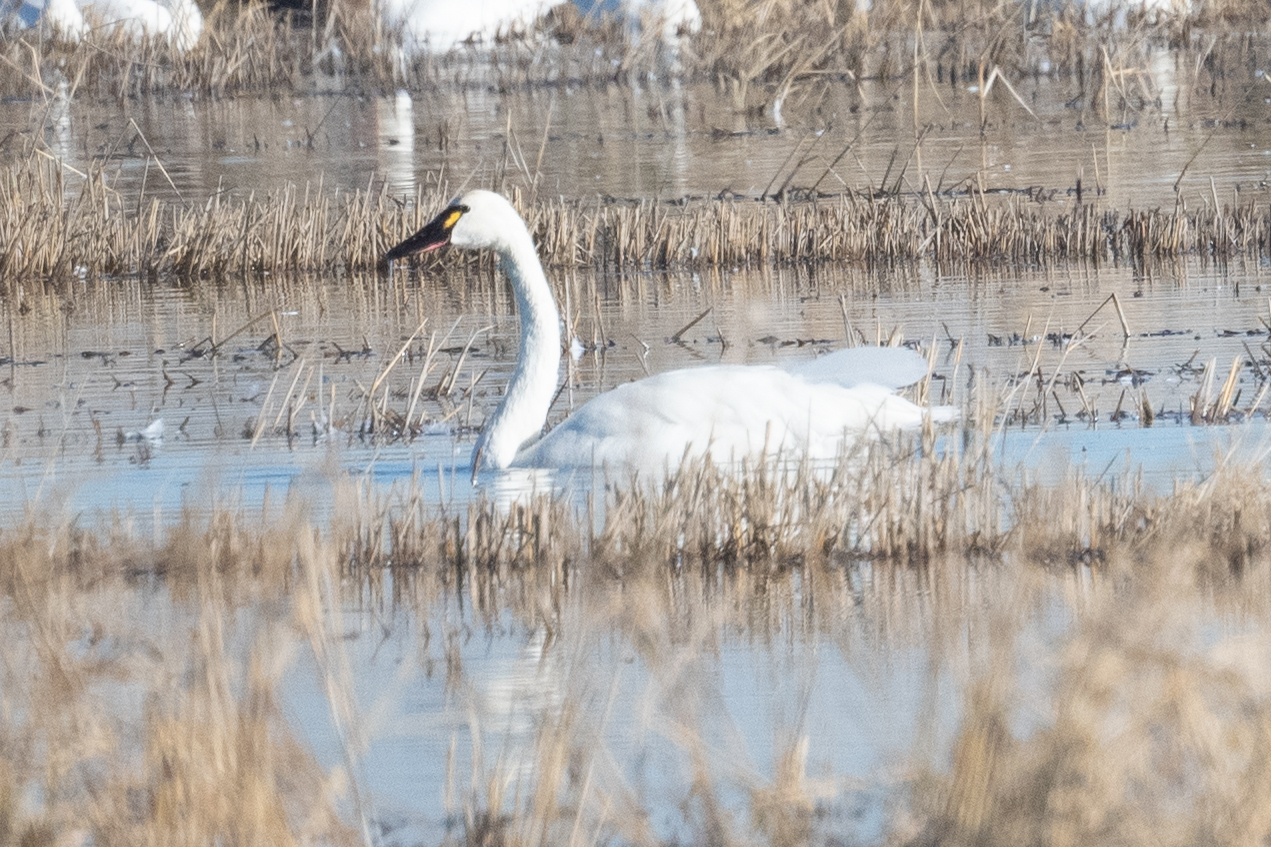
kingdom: Animalia
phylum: Chordata
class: Aves
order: Anseriformes
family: Anatidae
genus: Cygnus
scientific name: Cygnus columbianus
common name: Tundra swan
